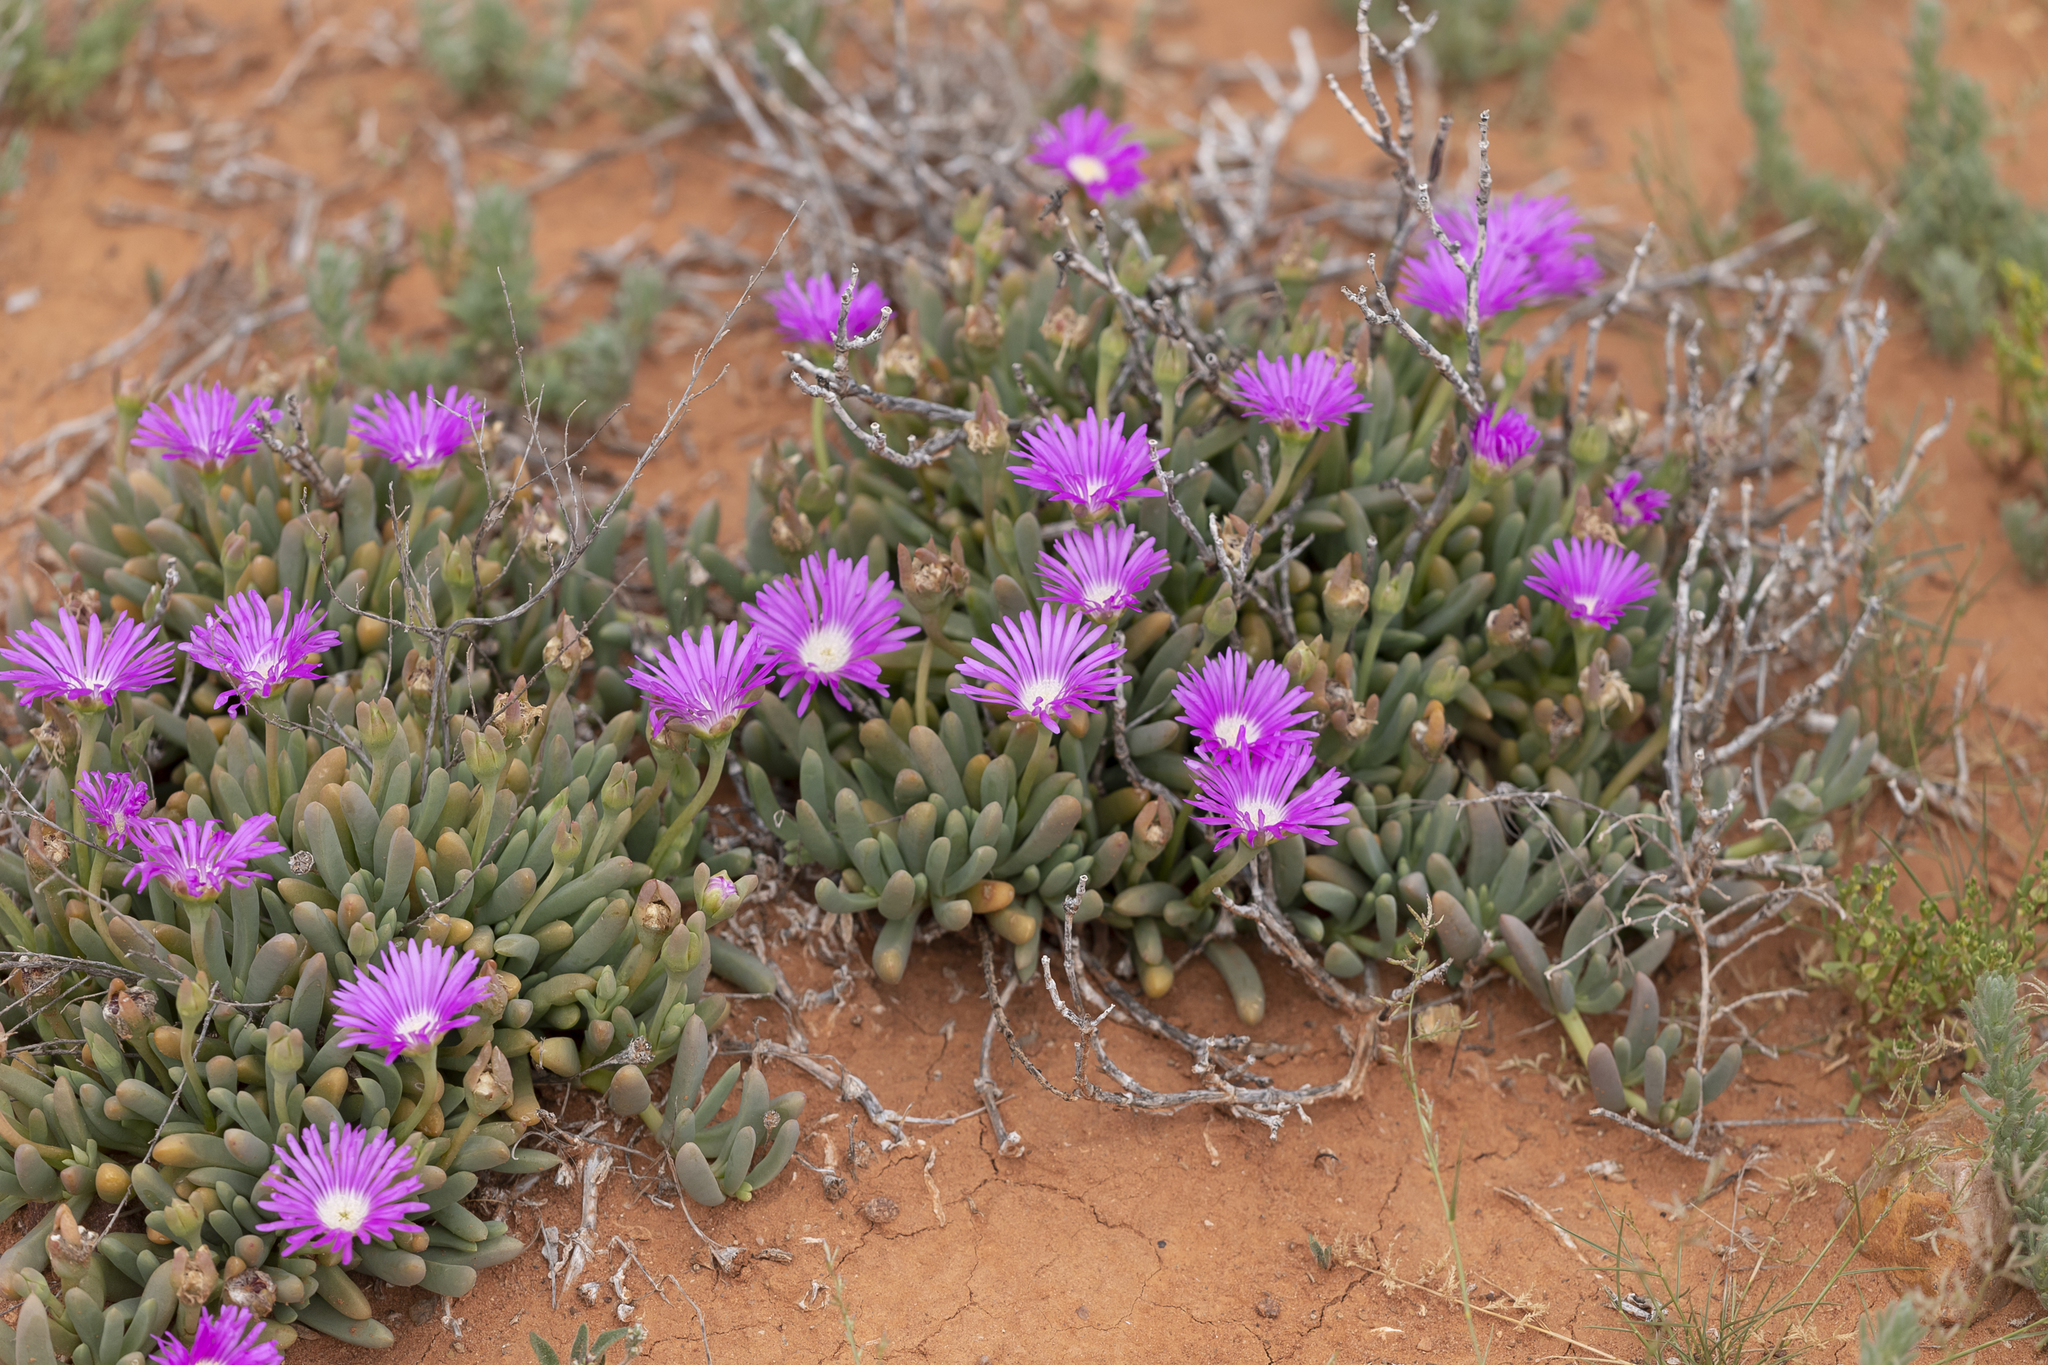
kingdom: Plantae
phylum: Tracheophyta
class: Magnoliopsida
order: Caryophyllales
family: Aizoaceae
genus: Disphyma
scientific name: Disphyma clavellatum
